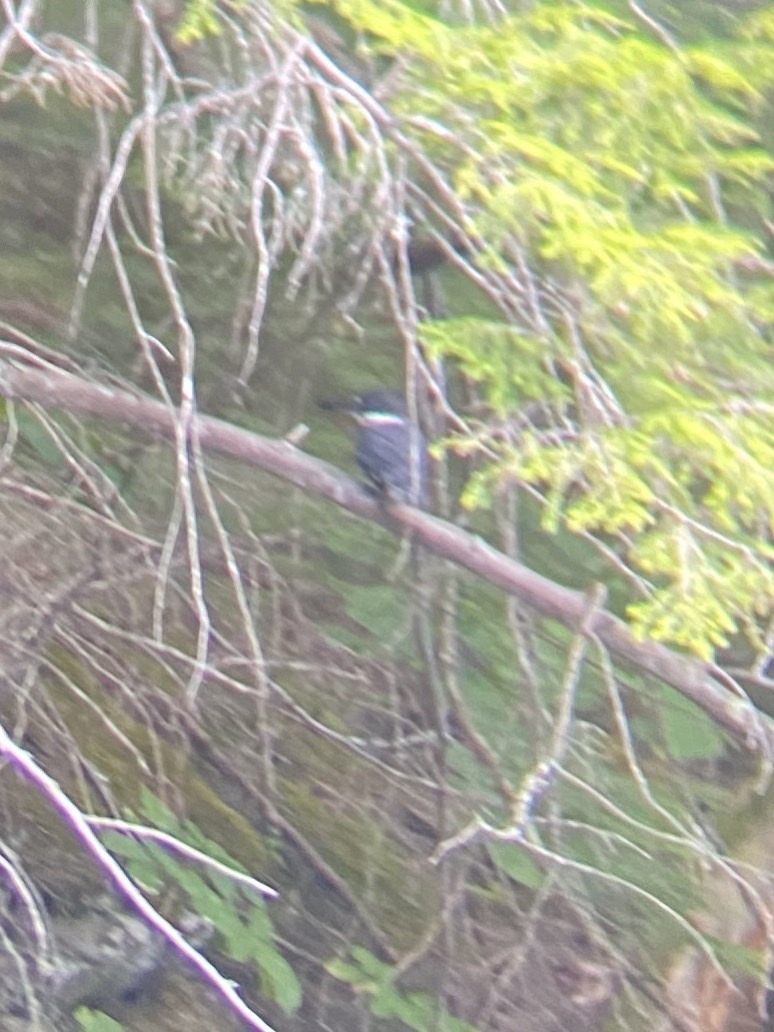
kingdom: Animalia
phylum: Chordata
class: Aves
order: Coraciiformes
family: Alcedinidae
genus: Megaceryle
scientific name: Megaceryle alcyon
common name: Belted kingfisher
